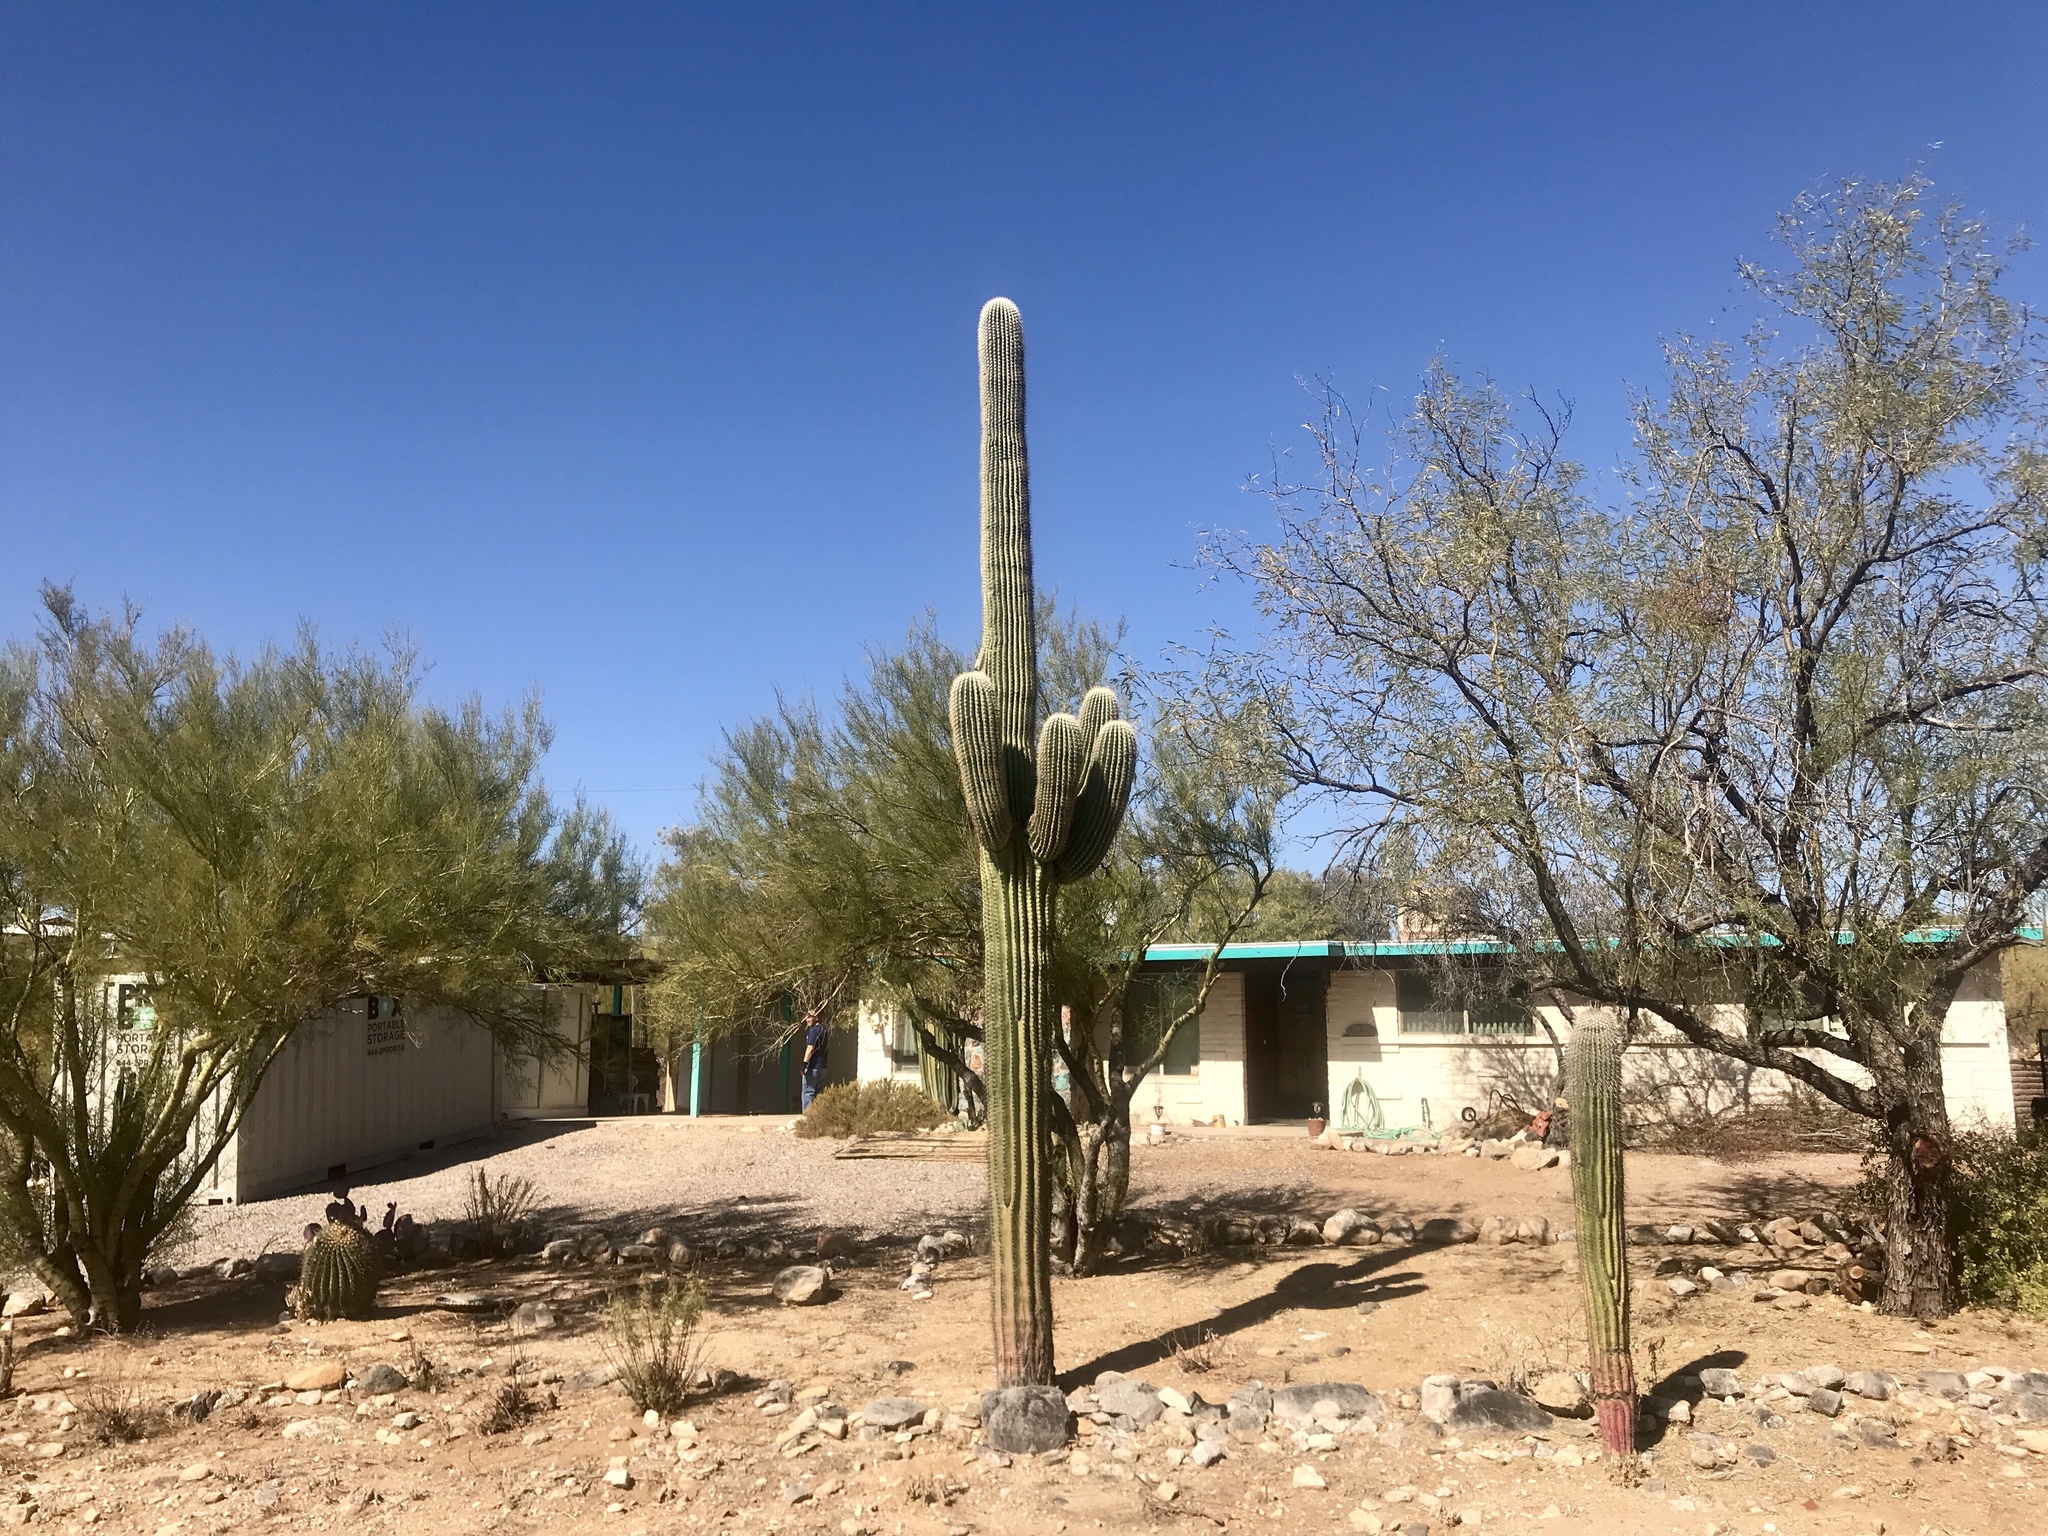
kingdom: Plantae
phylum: Tracheophyta
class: Magnoliopsida
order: Caryophyllales
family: Cactaceae
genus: Carnegiea
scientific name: Carnegiea gigantea
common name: Saguaro
